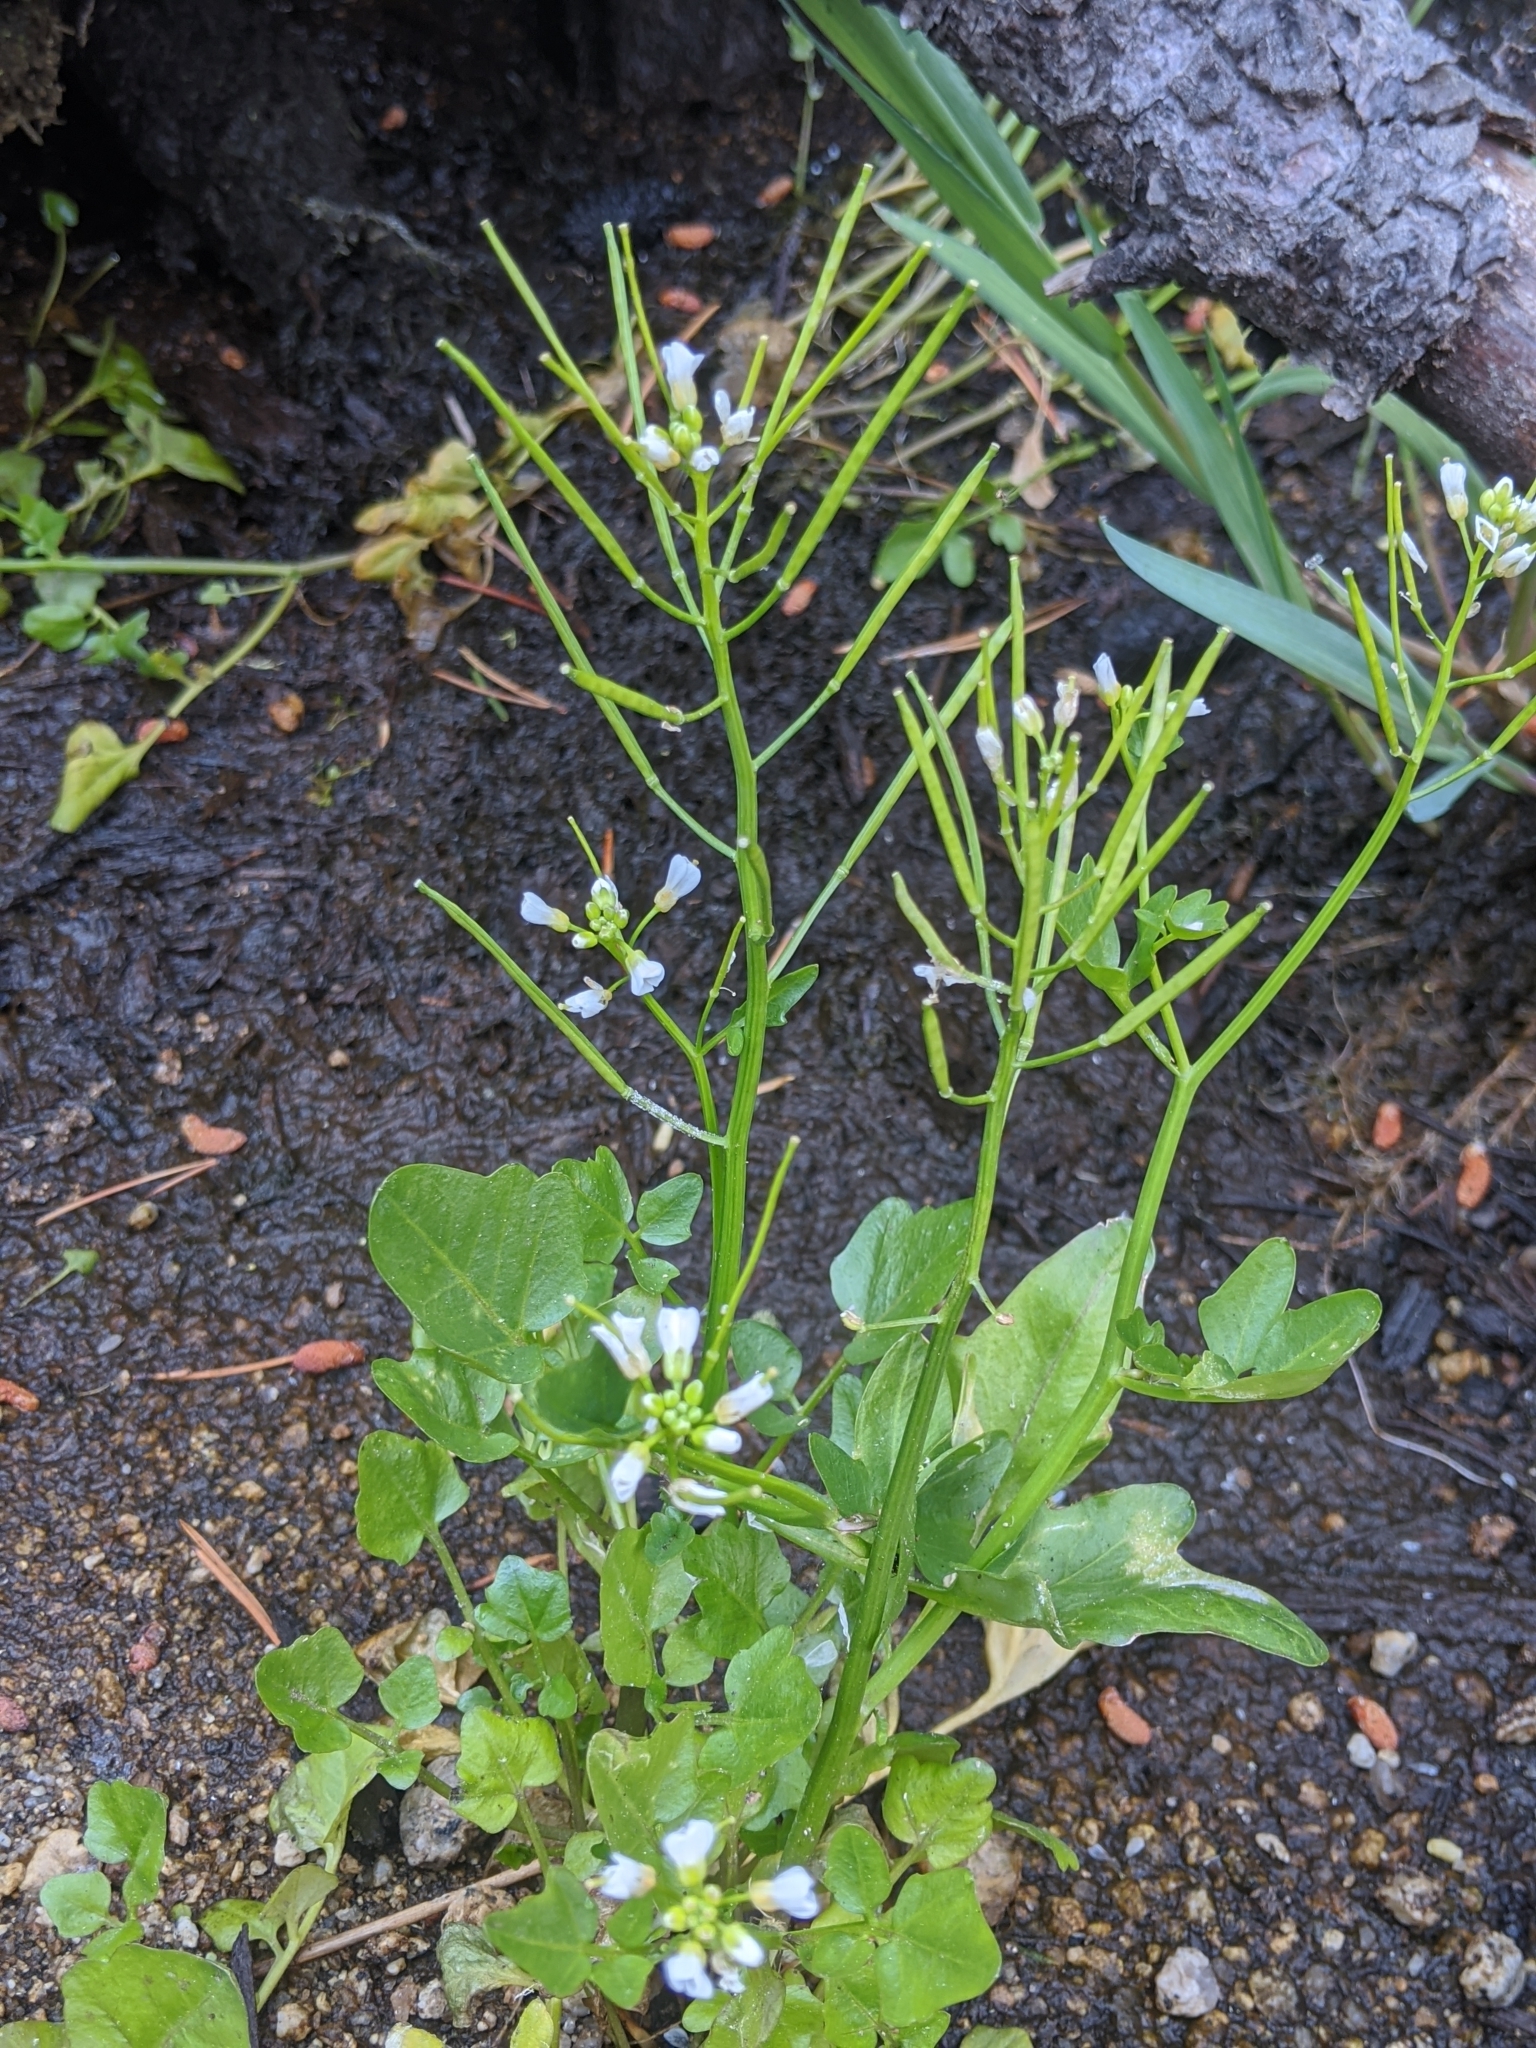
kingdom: Plantae
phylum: Tracheophyta
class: Magnoliopsida
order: Brassicales
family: Brassicaceae
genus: Cardamine
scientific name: Cardamine breweri
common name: Brewer's bittercress
